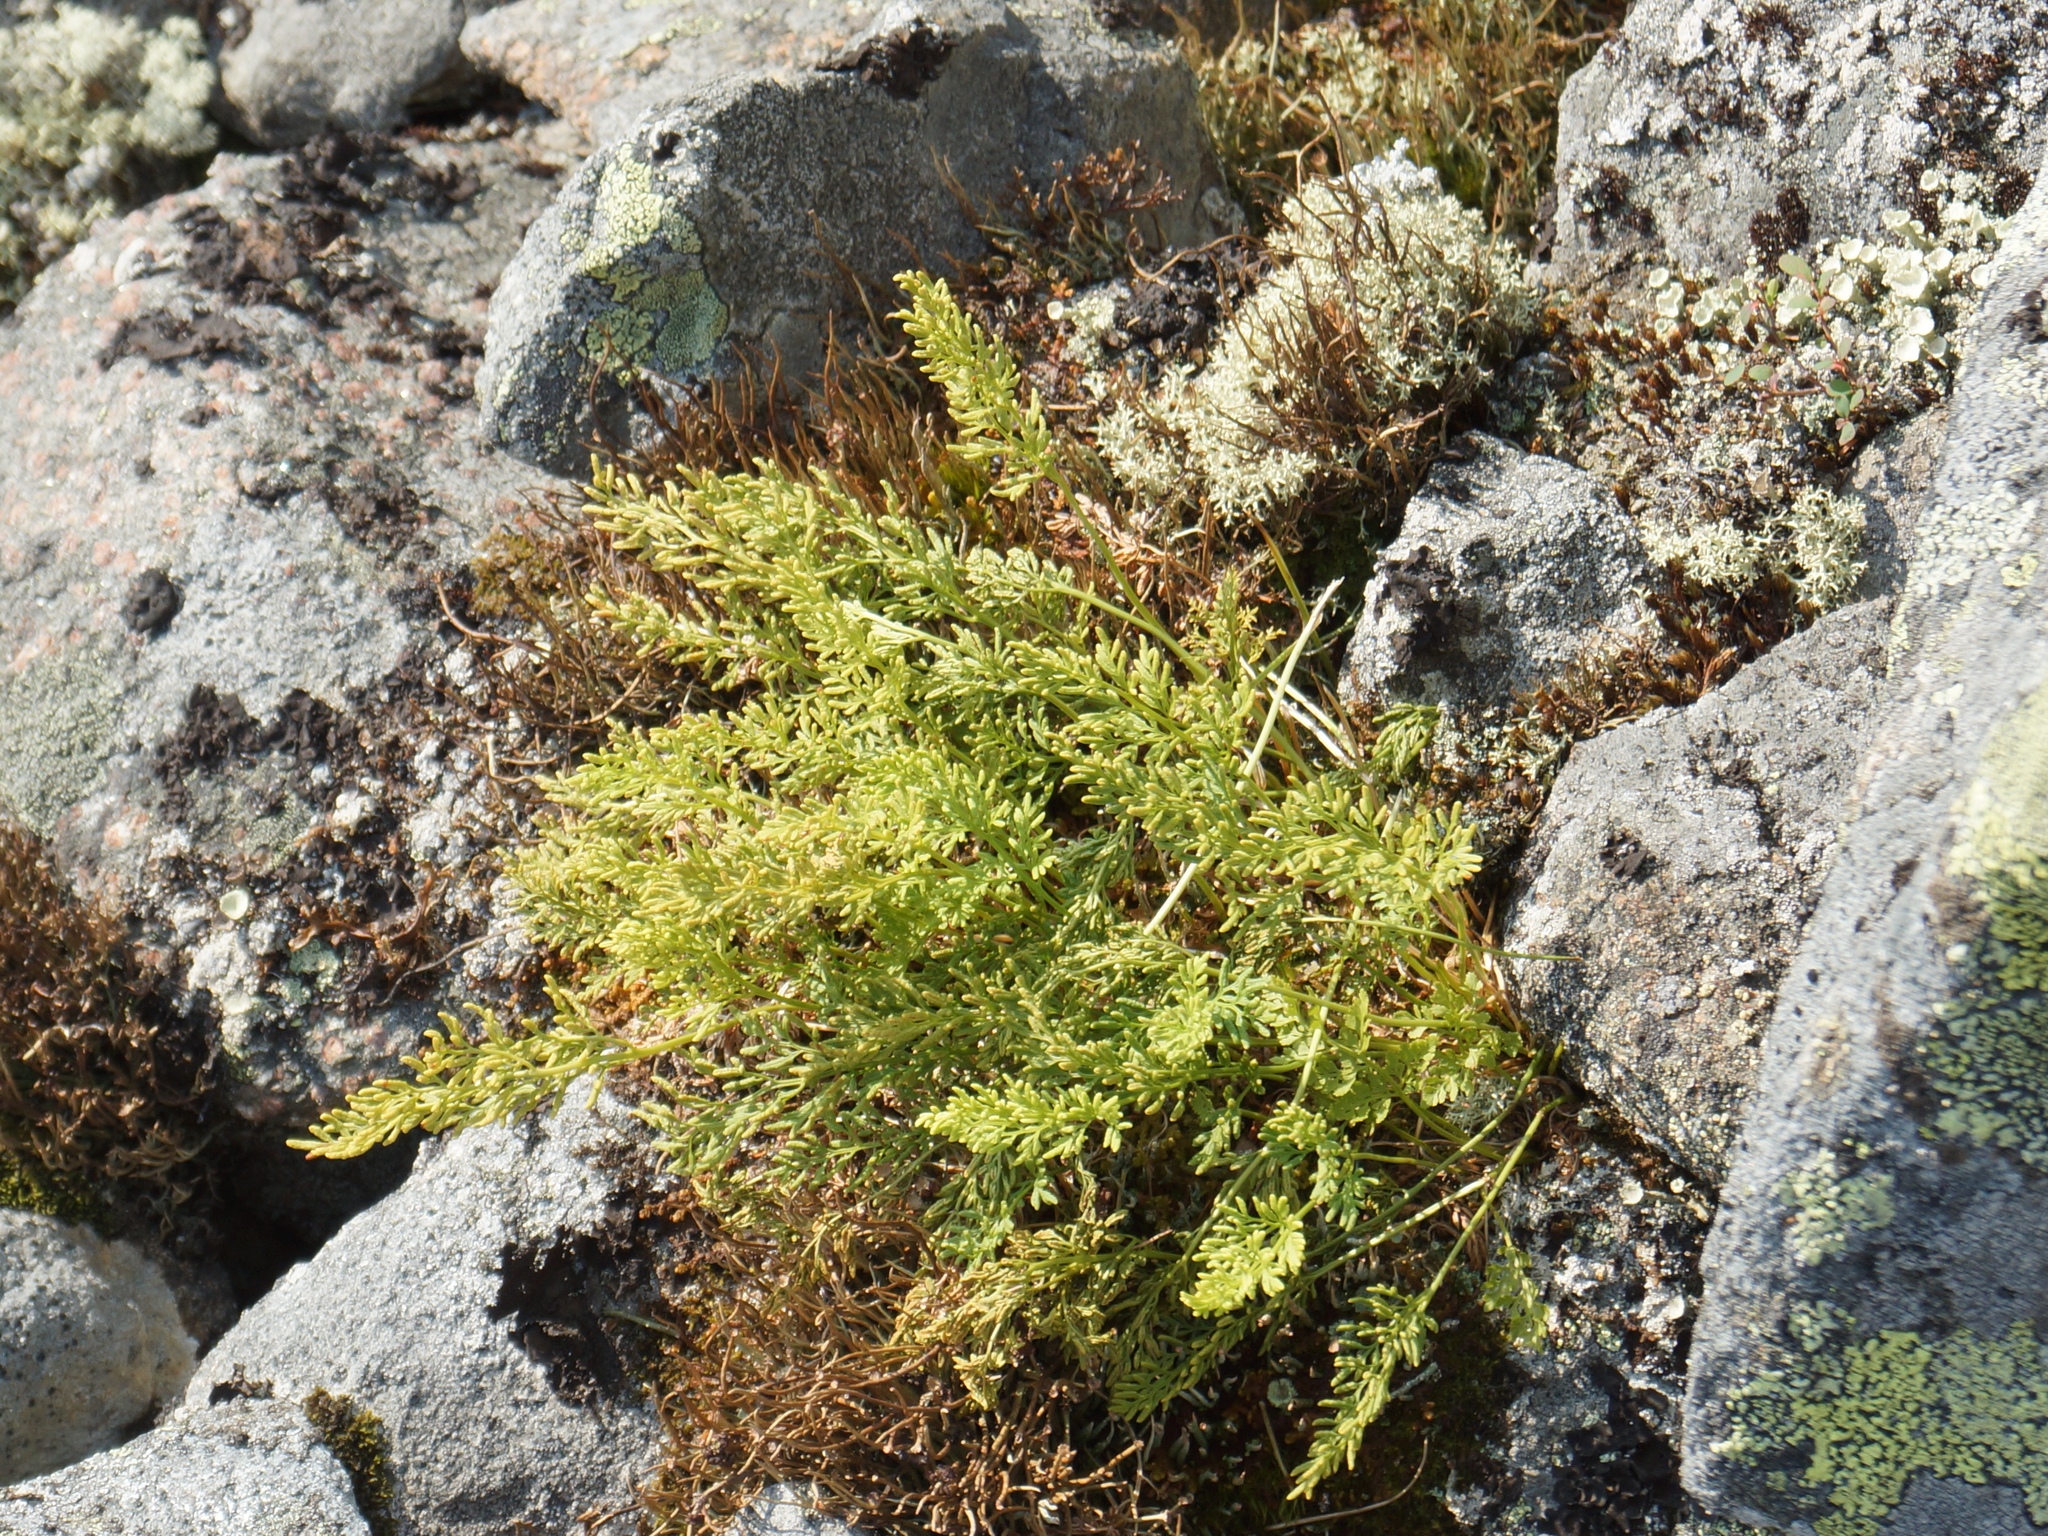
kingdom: Plantae
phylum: Tracheophyta
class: Polypodiopsida
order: Polypodiales
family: Pteridaceae
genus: Cryptogramma
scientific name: Cryptogramma crispa
